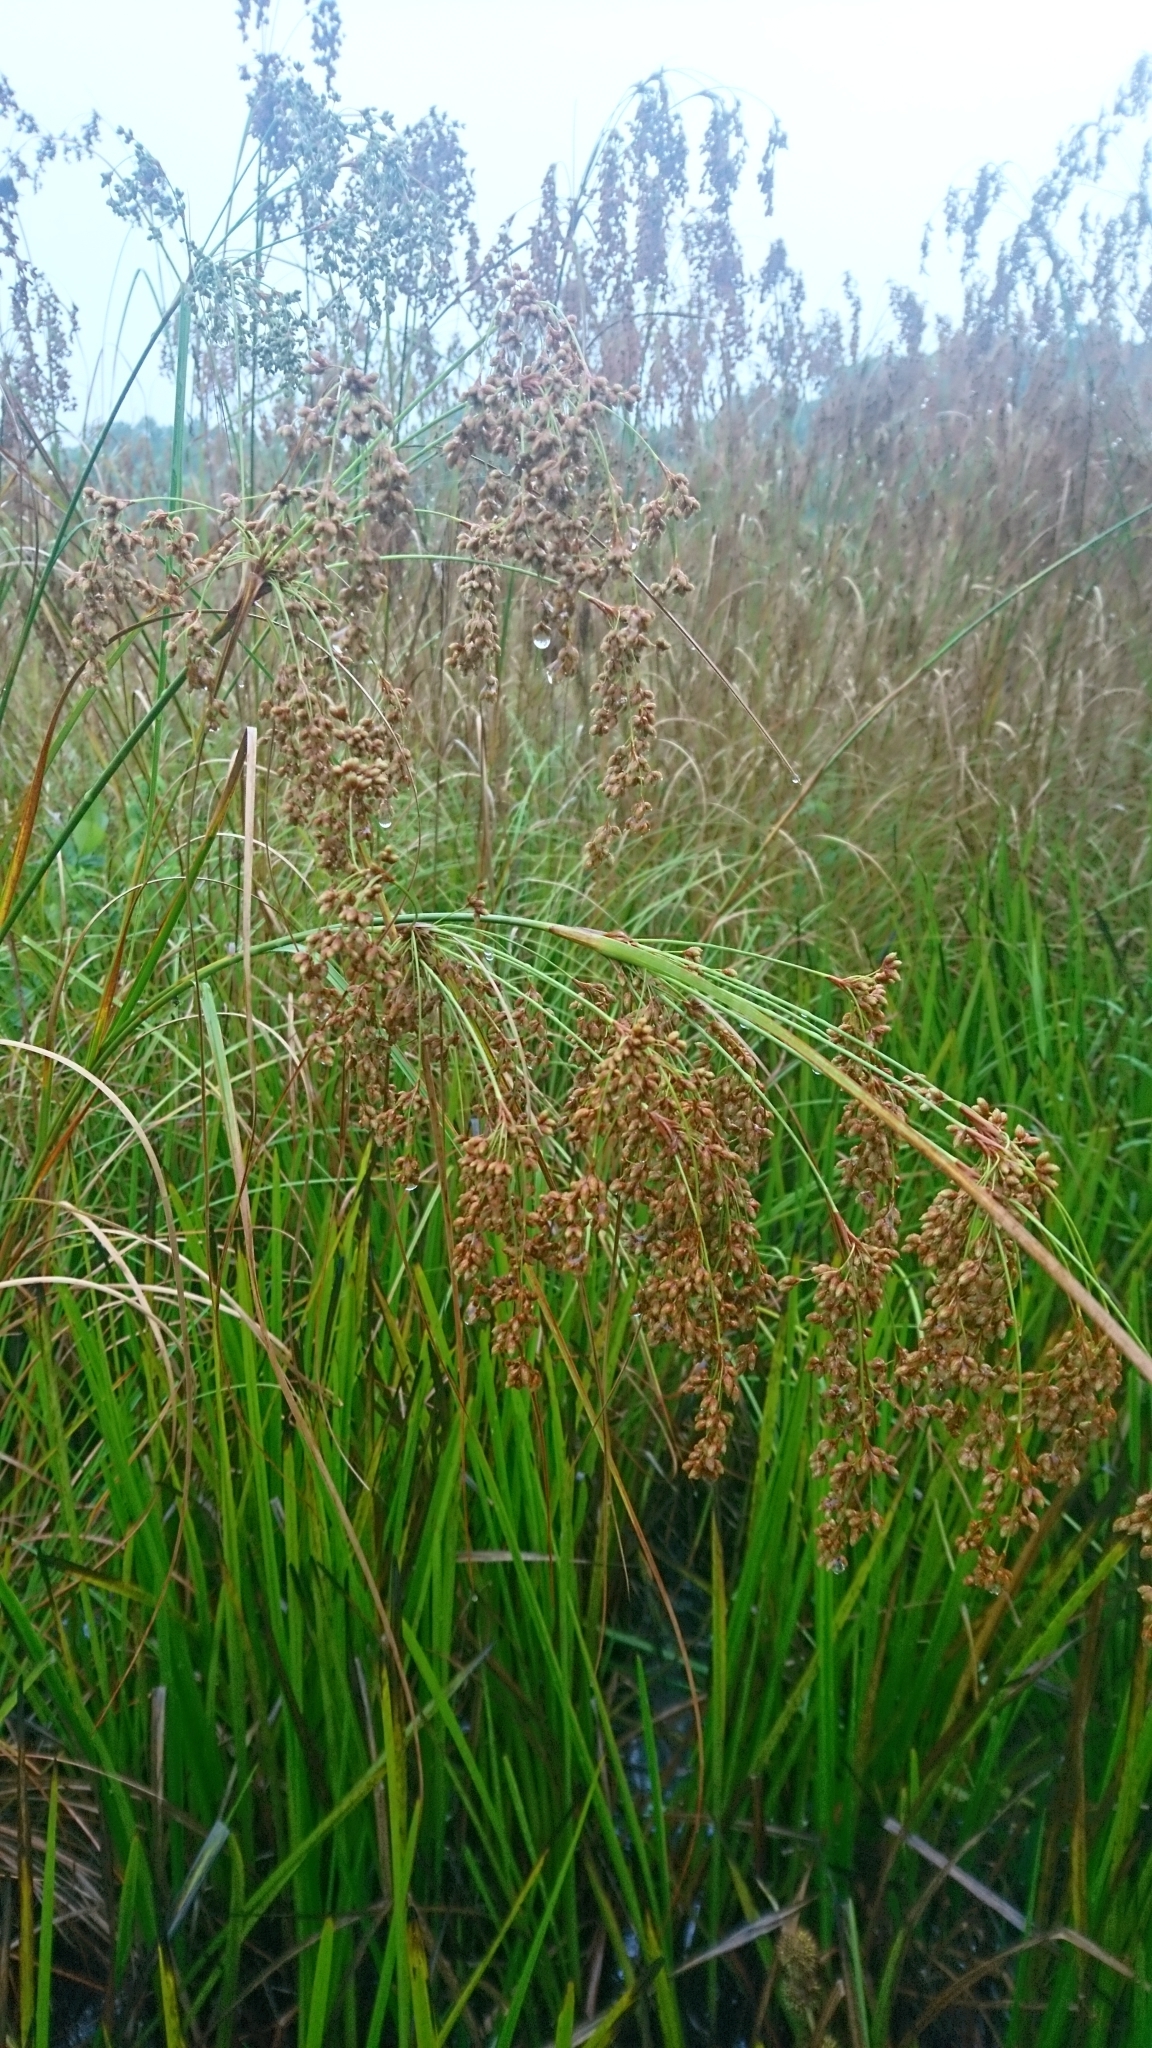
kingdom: Plantae
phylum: Tracheophyta
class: Liliopsida
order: Poales
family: Cyperaceae
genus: Scirpus
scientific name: Scirpus cyperinus
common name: Black-sheathed bulrush
